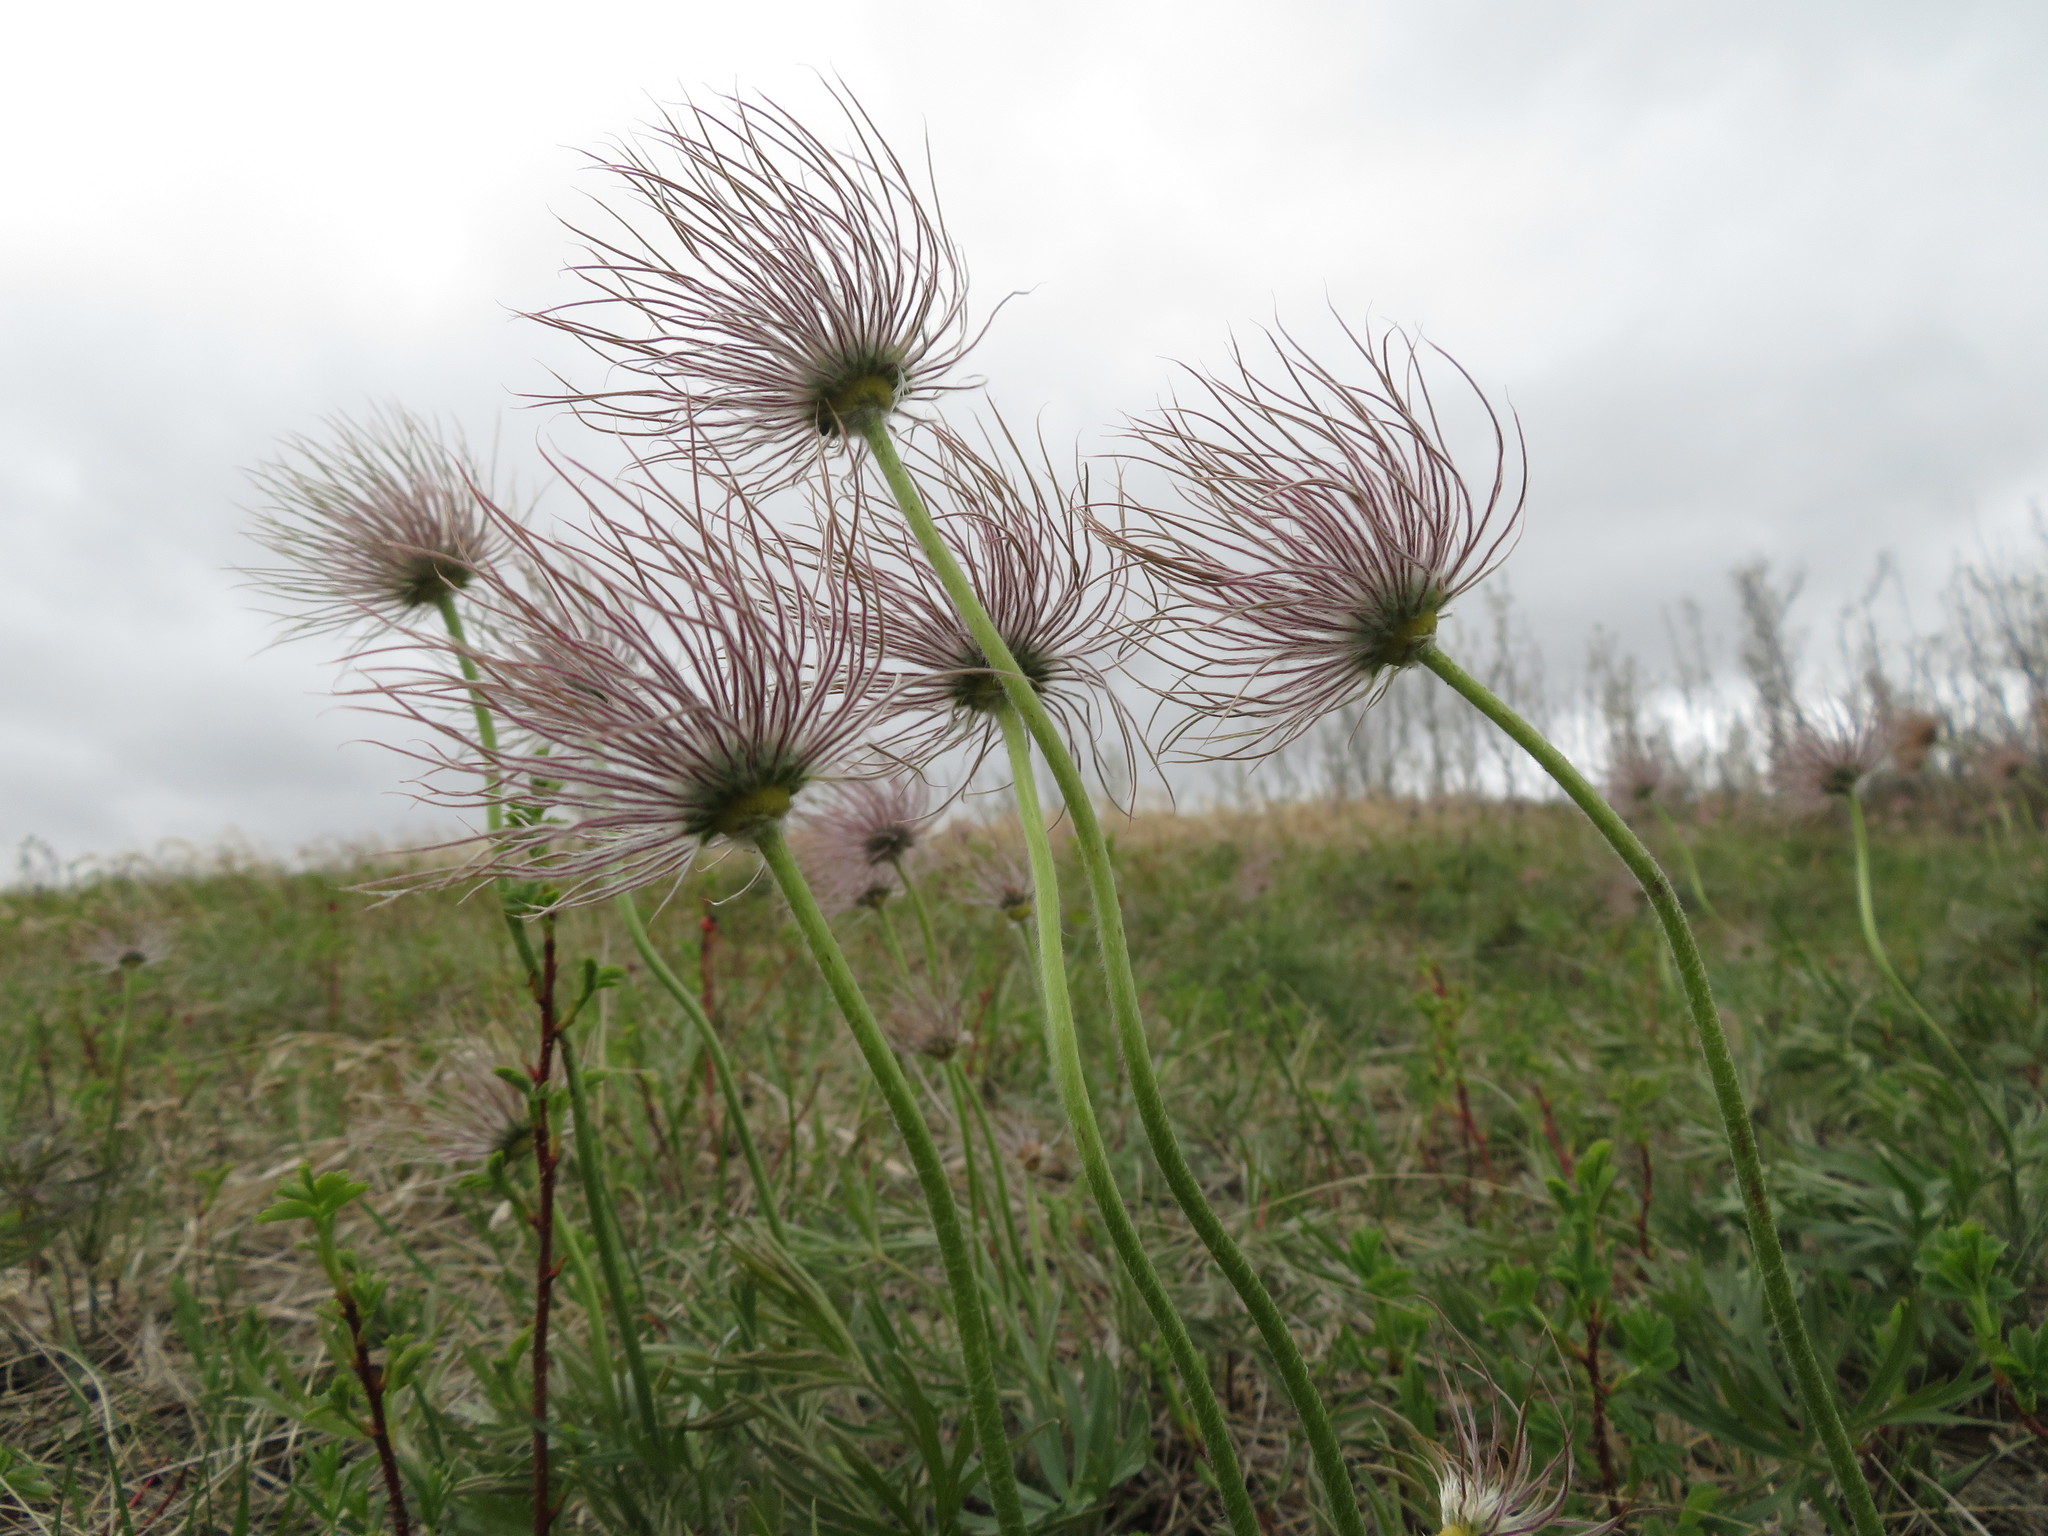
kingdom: Plantae
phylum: Tracheophyta
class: Magnoliopsida
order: Ranunculales
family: Ranunculaceae
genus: Pulsatilla
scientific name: Pulsatilla nuttalliana
